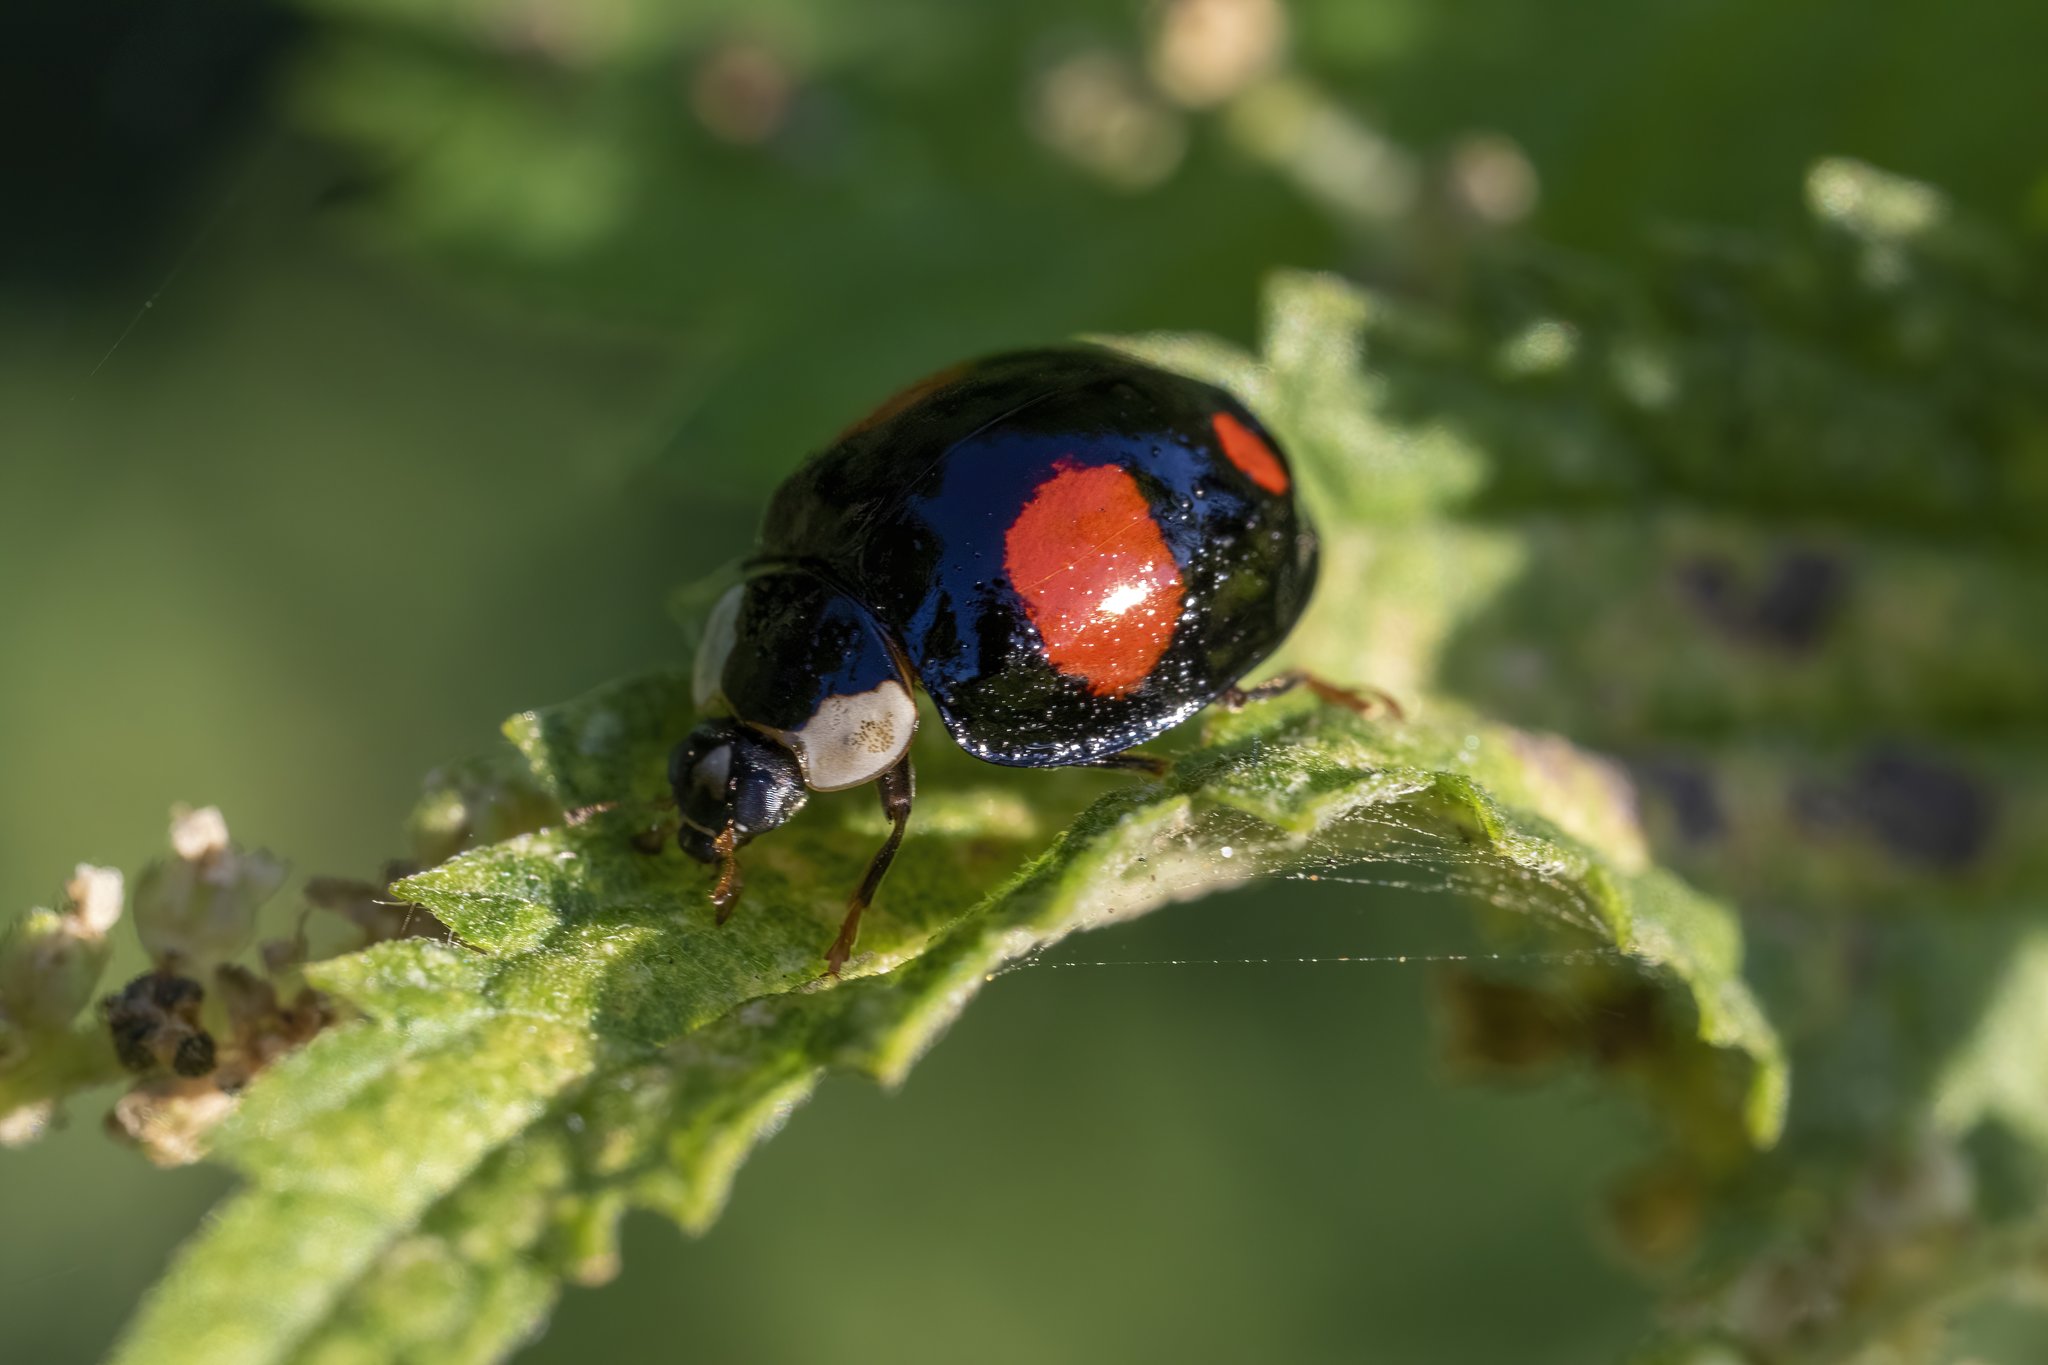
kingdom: Animalia
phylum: Arthropoda
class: Insecta
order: Coleoptera
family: Coccinellidae
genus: Harmonia
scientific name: Harmonia axyridis
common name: Harlequin ladybird
